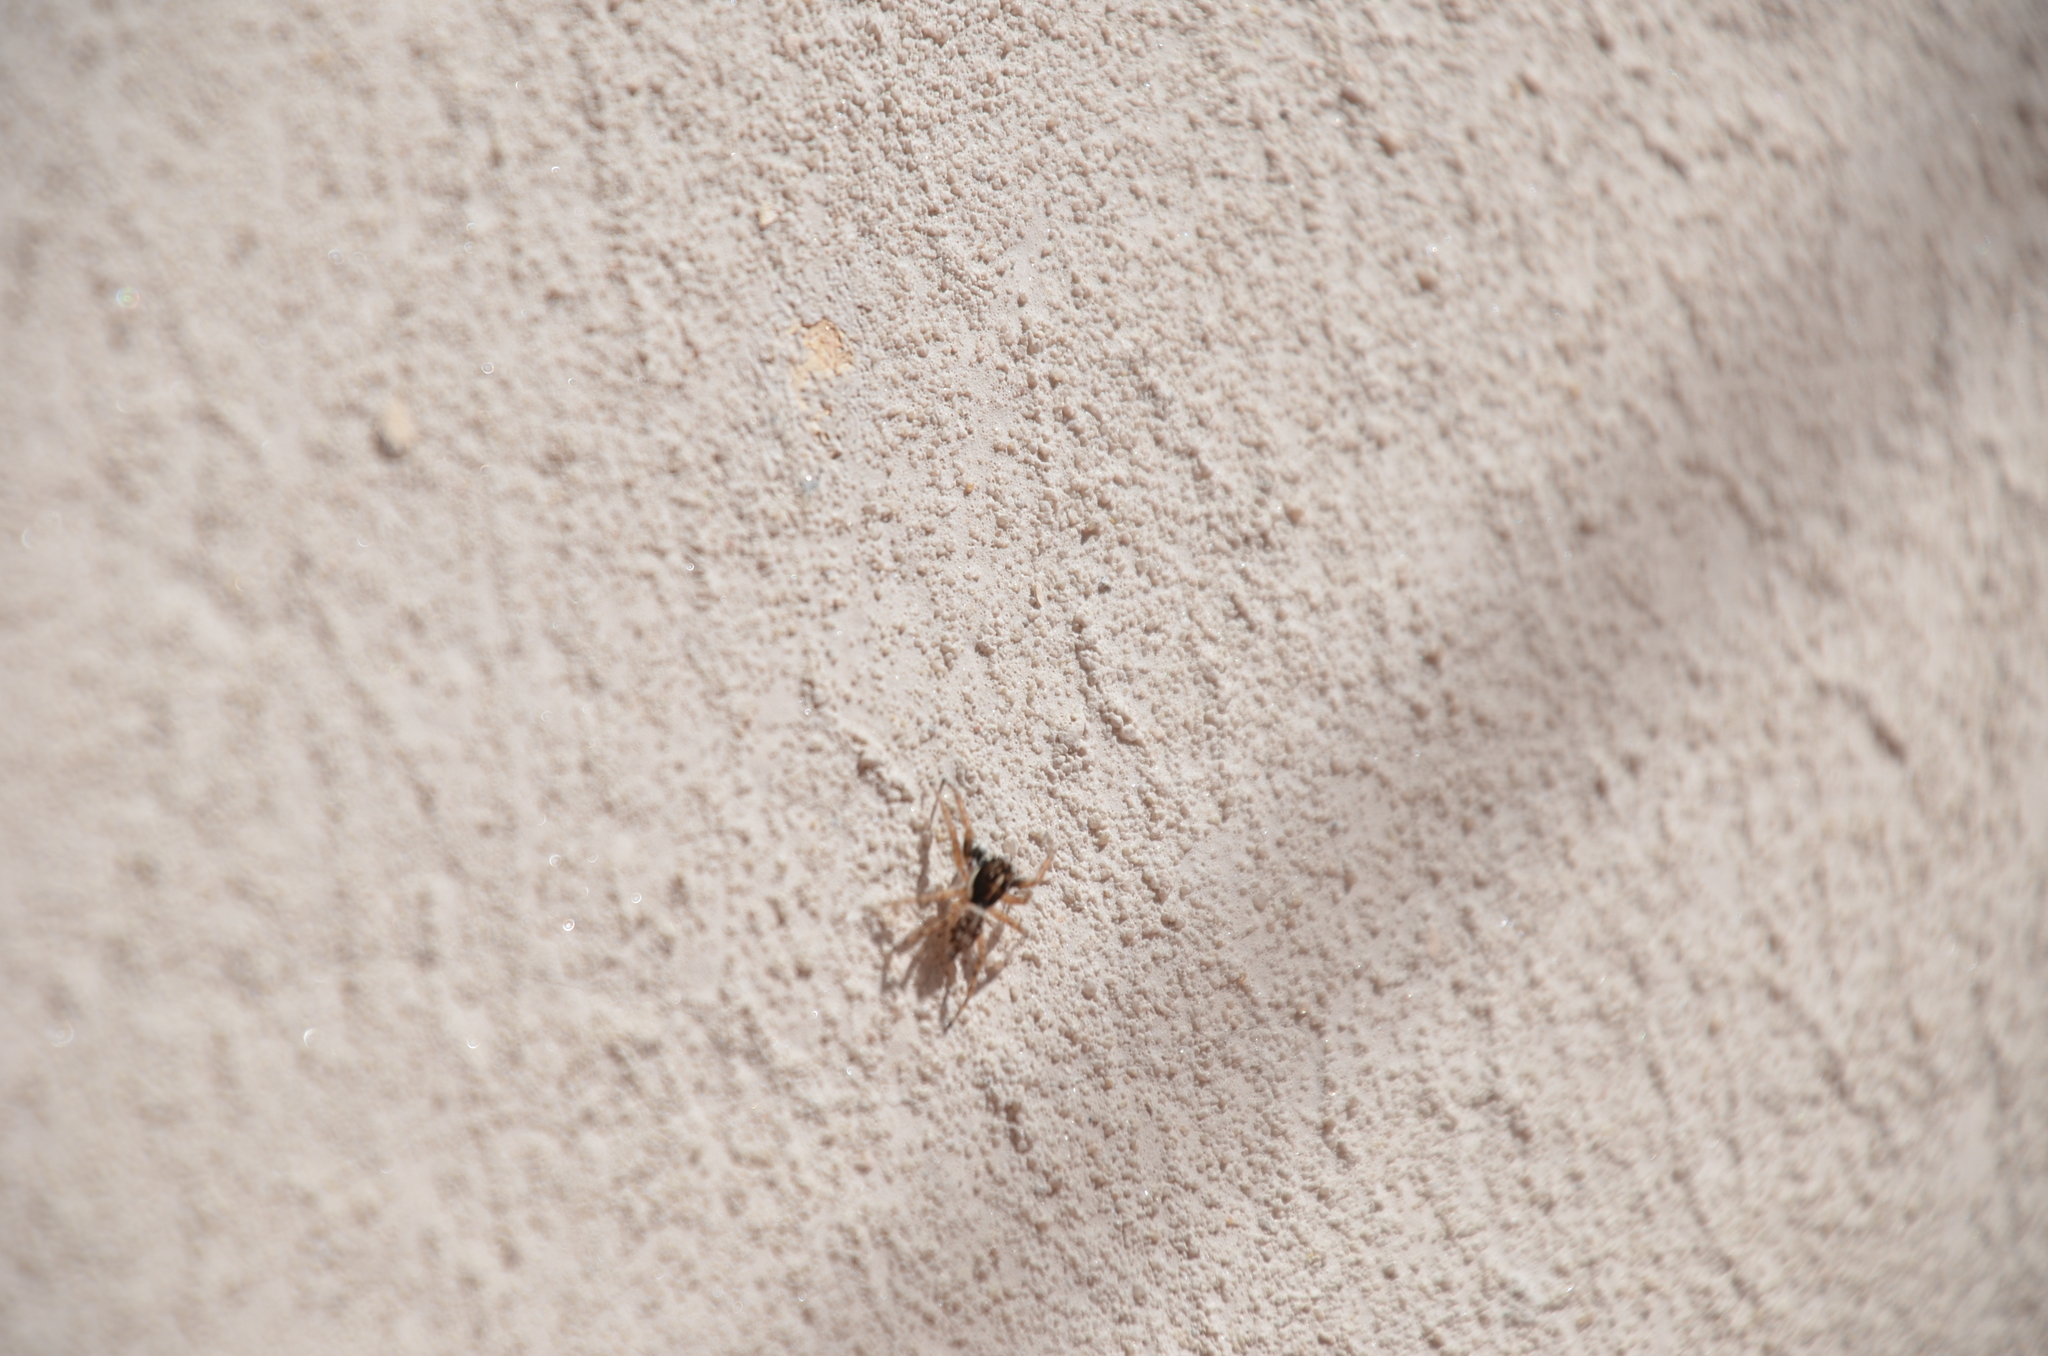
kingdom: Animalia
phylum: Arthropoda
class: Arachnida
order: Araneae
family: Salticidae
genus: Menemerus
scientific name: Menemerus semilimbatus
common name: Jumping spider
